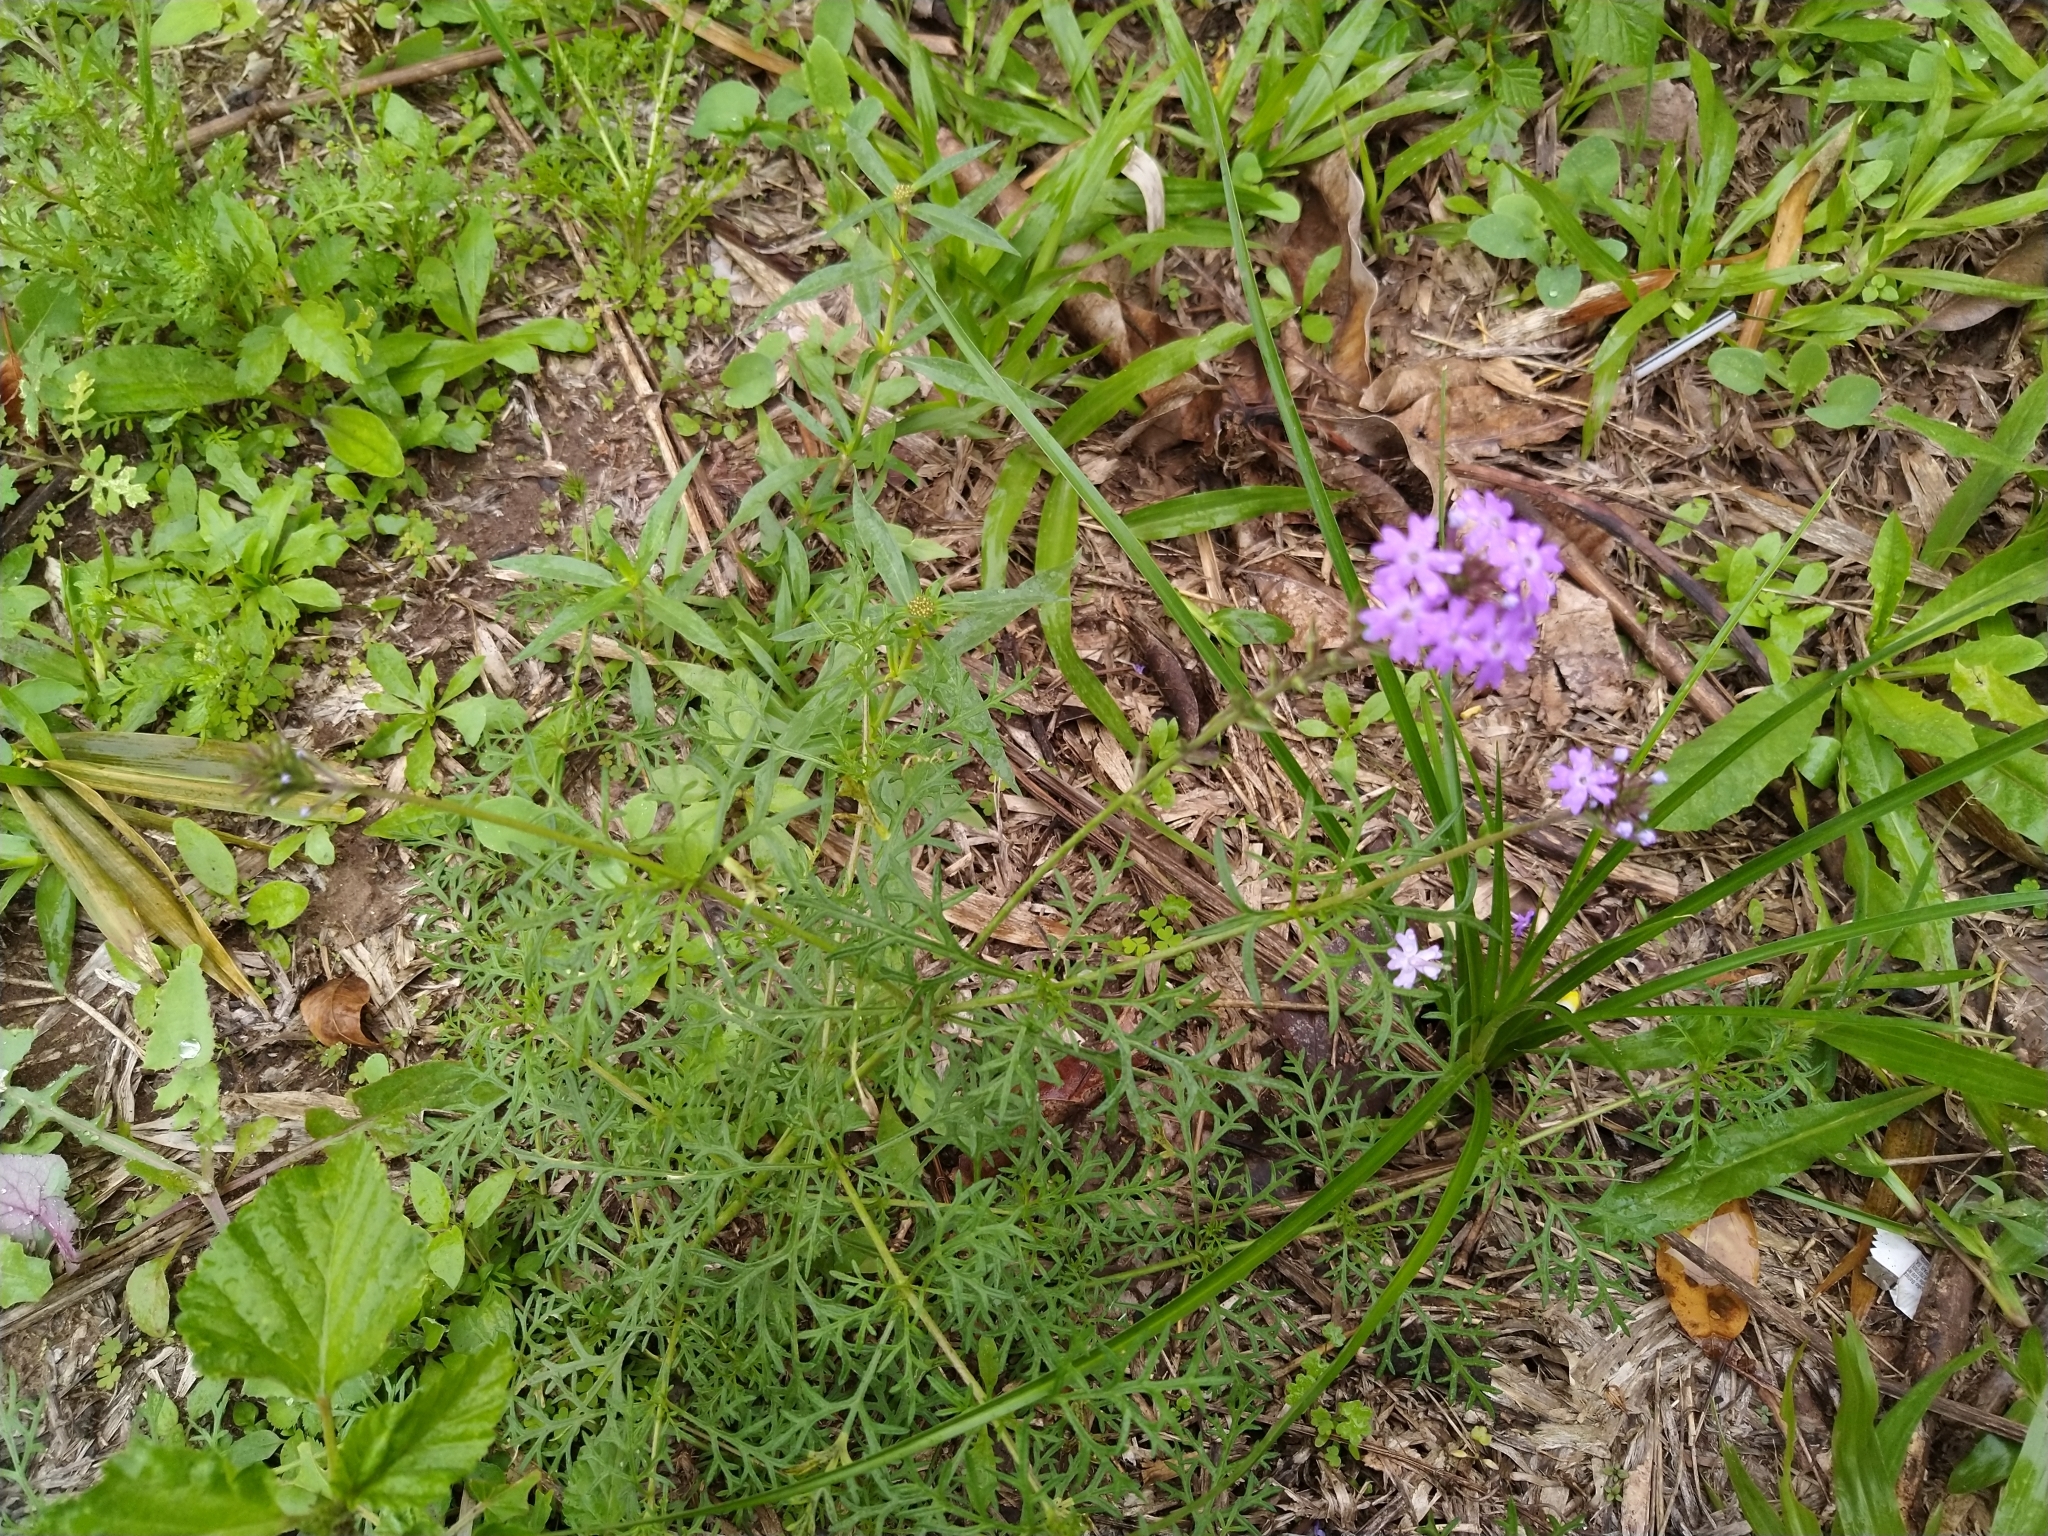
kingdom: Plantae
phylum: Tracheophyta
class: Magnoliopsida
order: Lamiales
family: Verbenaceae
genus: Verbena
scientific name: Verbena aristigera
